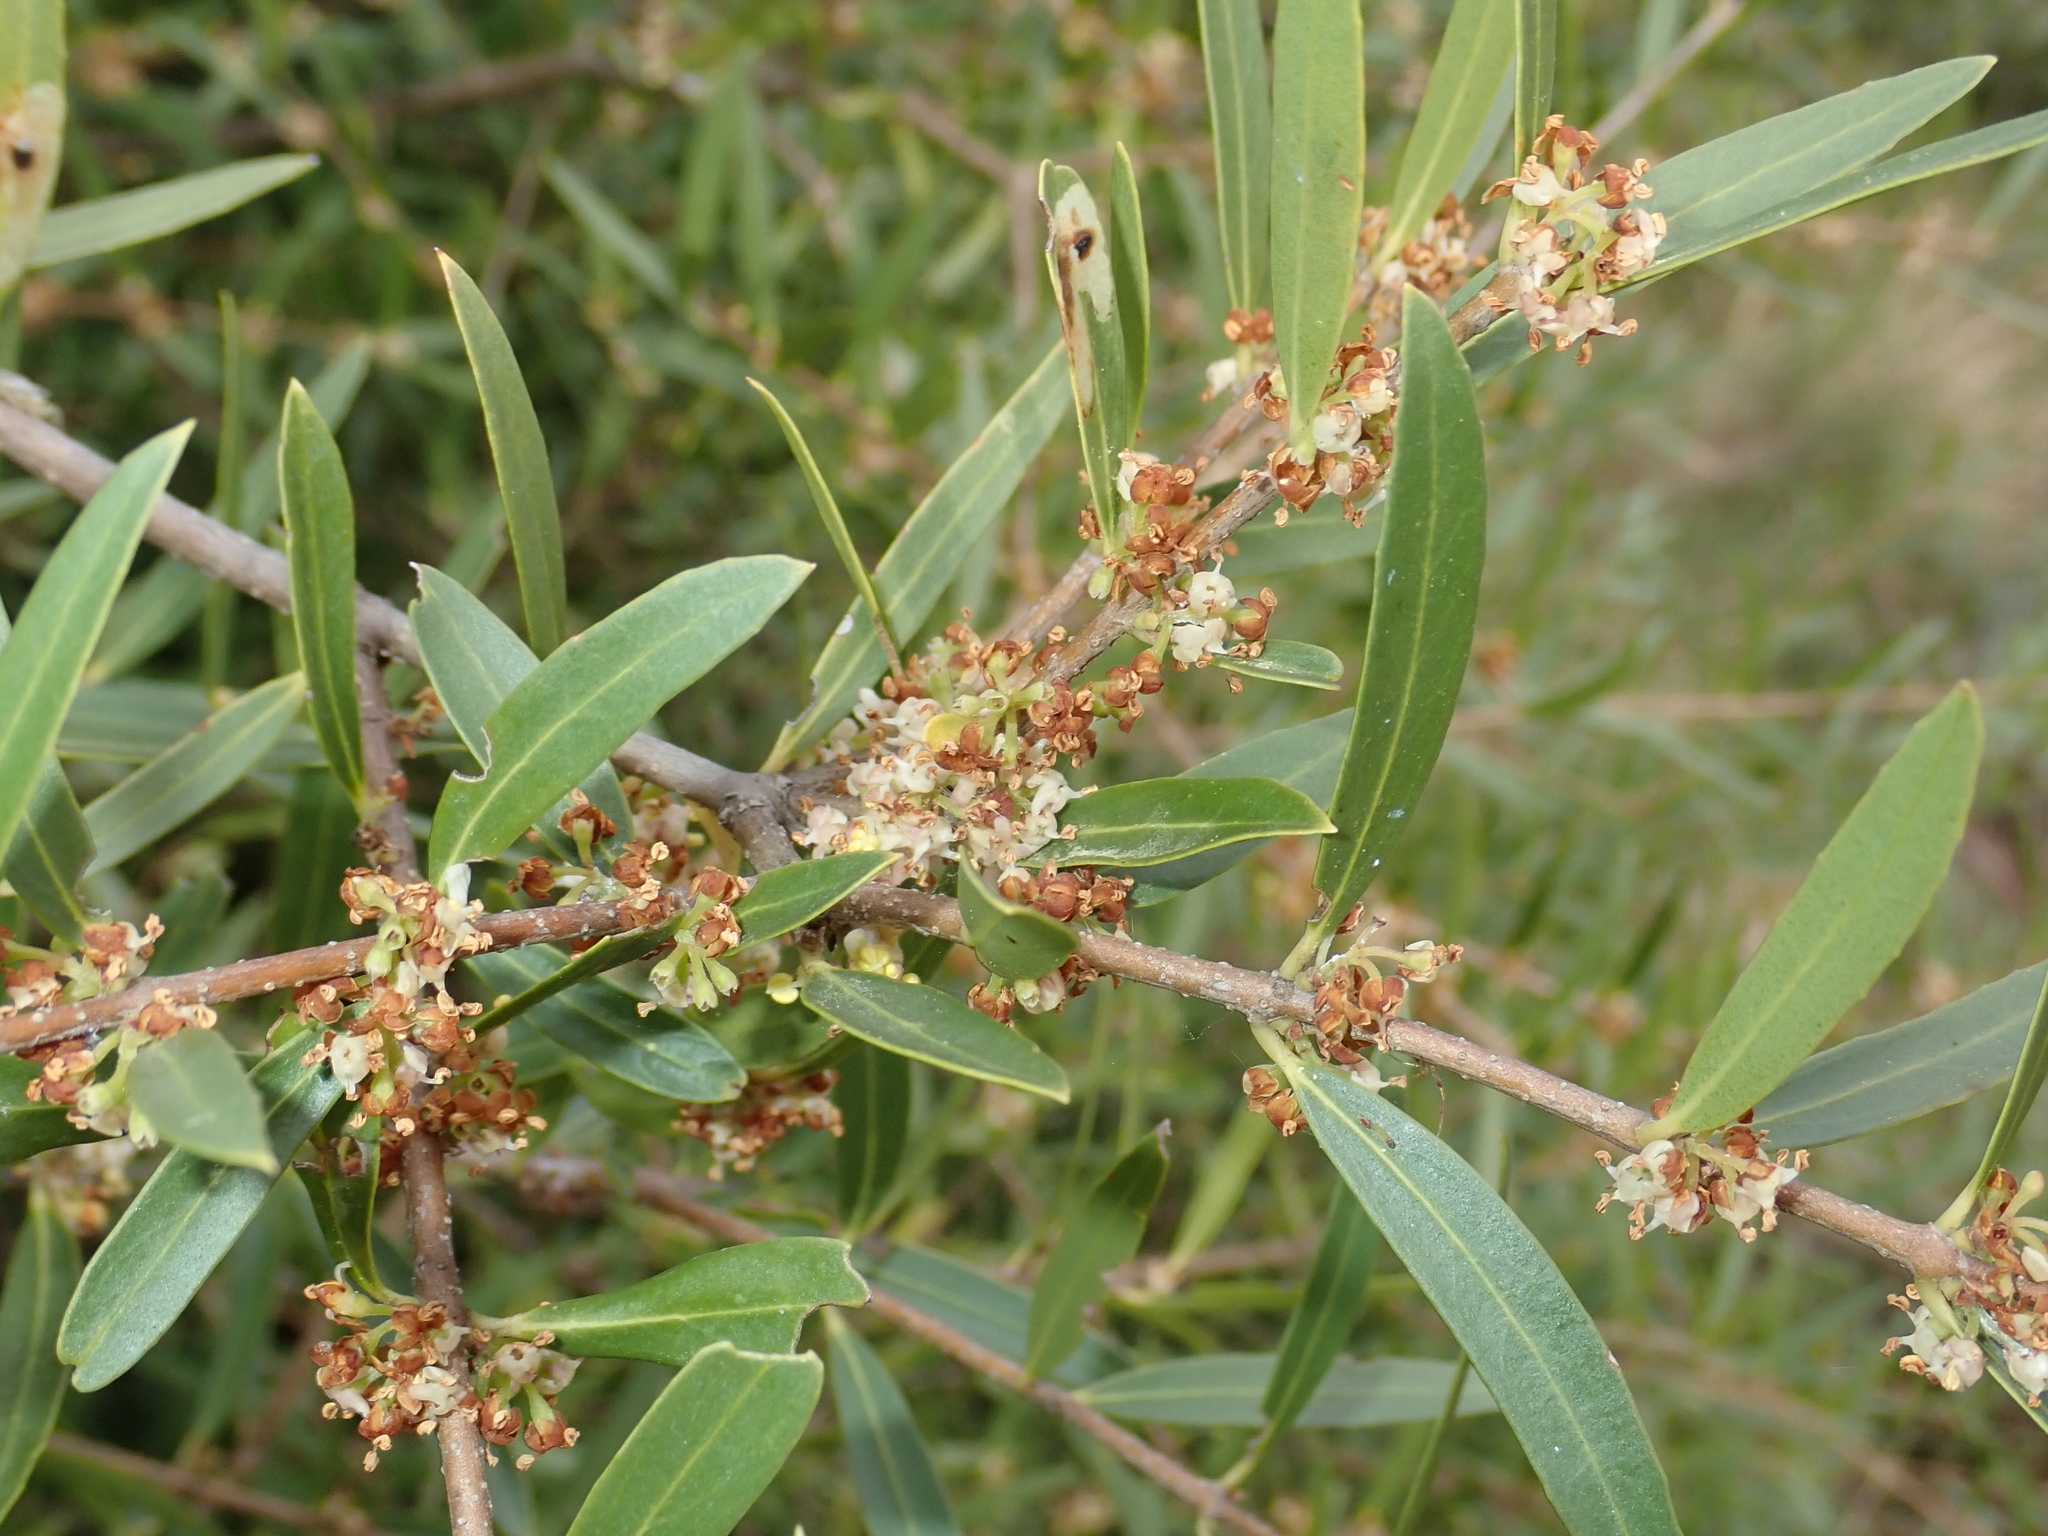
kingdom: Plantae
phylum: Tracheophyta
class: Magnoliopsida
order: Lamiales
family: Oleaceae
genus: Phillyrea
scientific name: Phillyrea angustifolia
